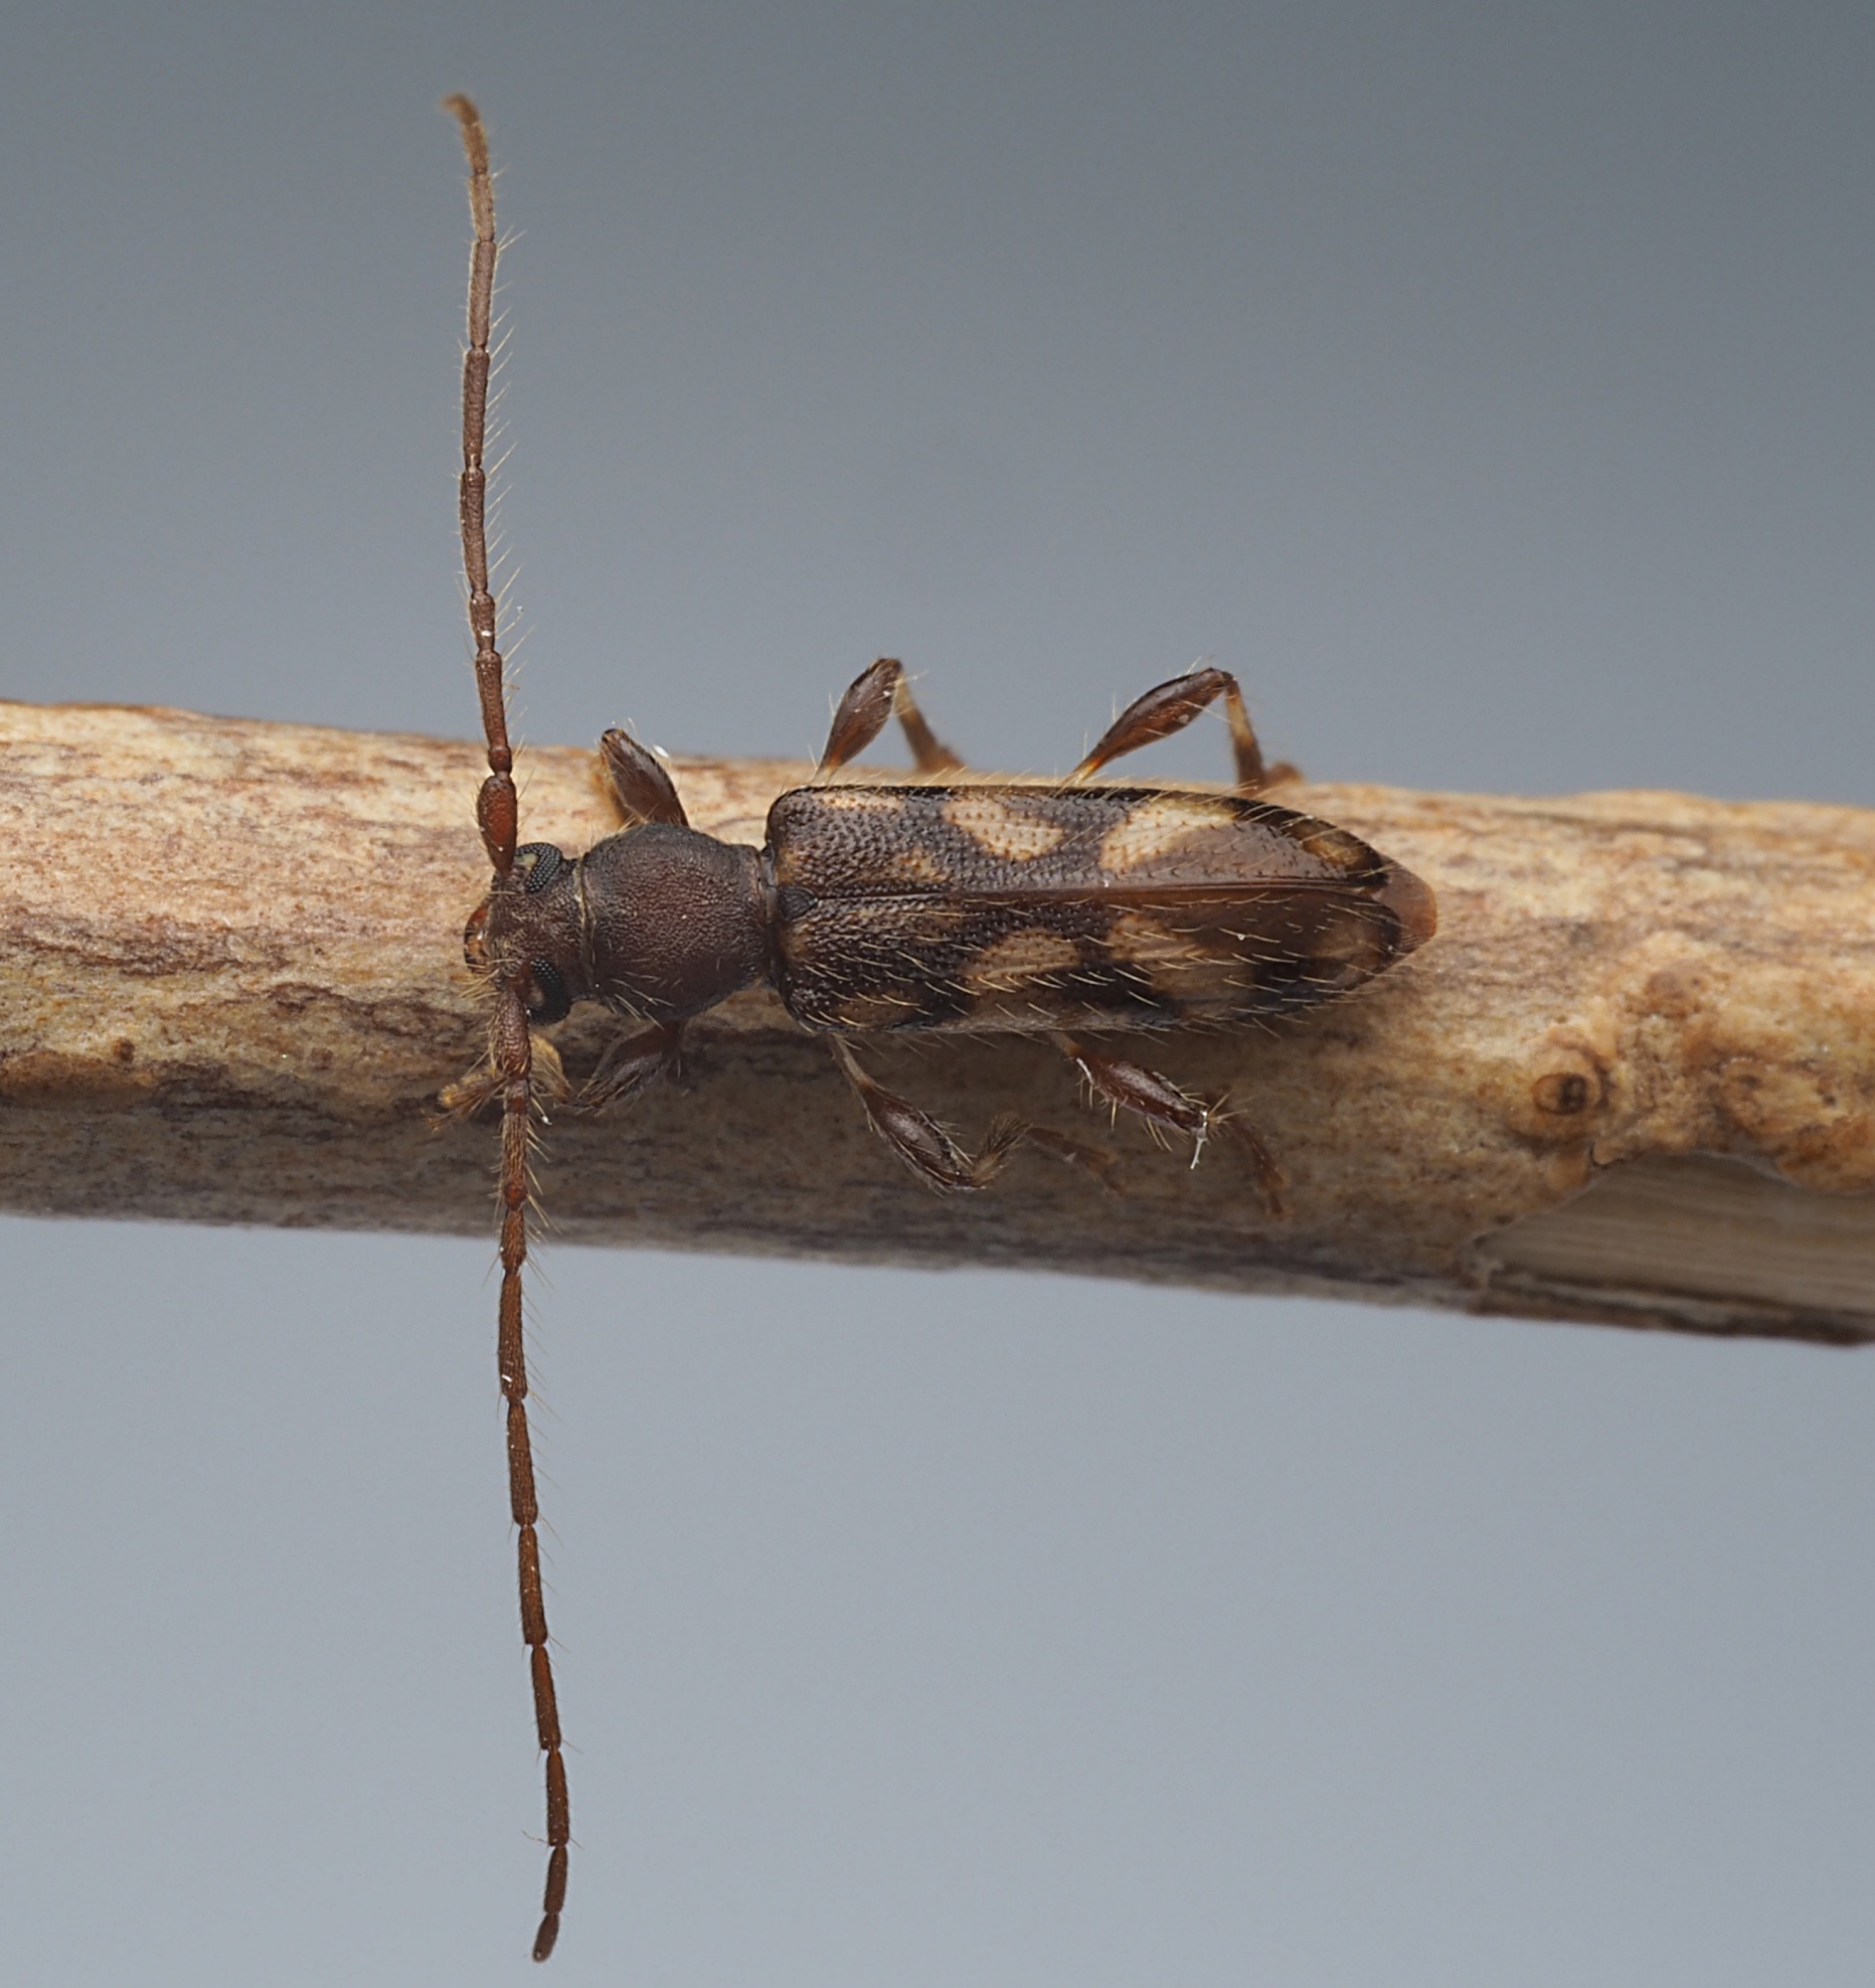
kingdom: Animalia
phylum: Arthropoda
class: Insecta
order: Coleoptera
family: Cerambycidae
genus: Bethelium
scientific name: Bethelium signiferum
